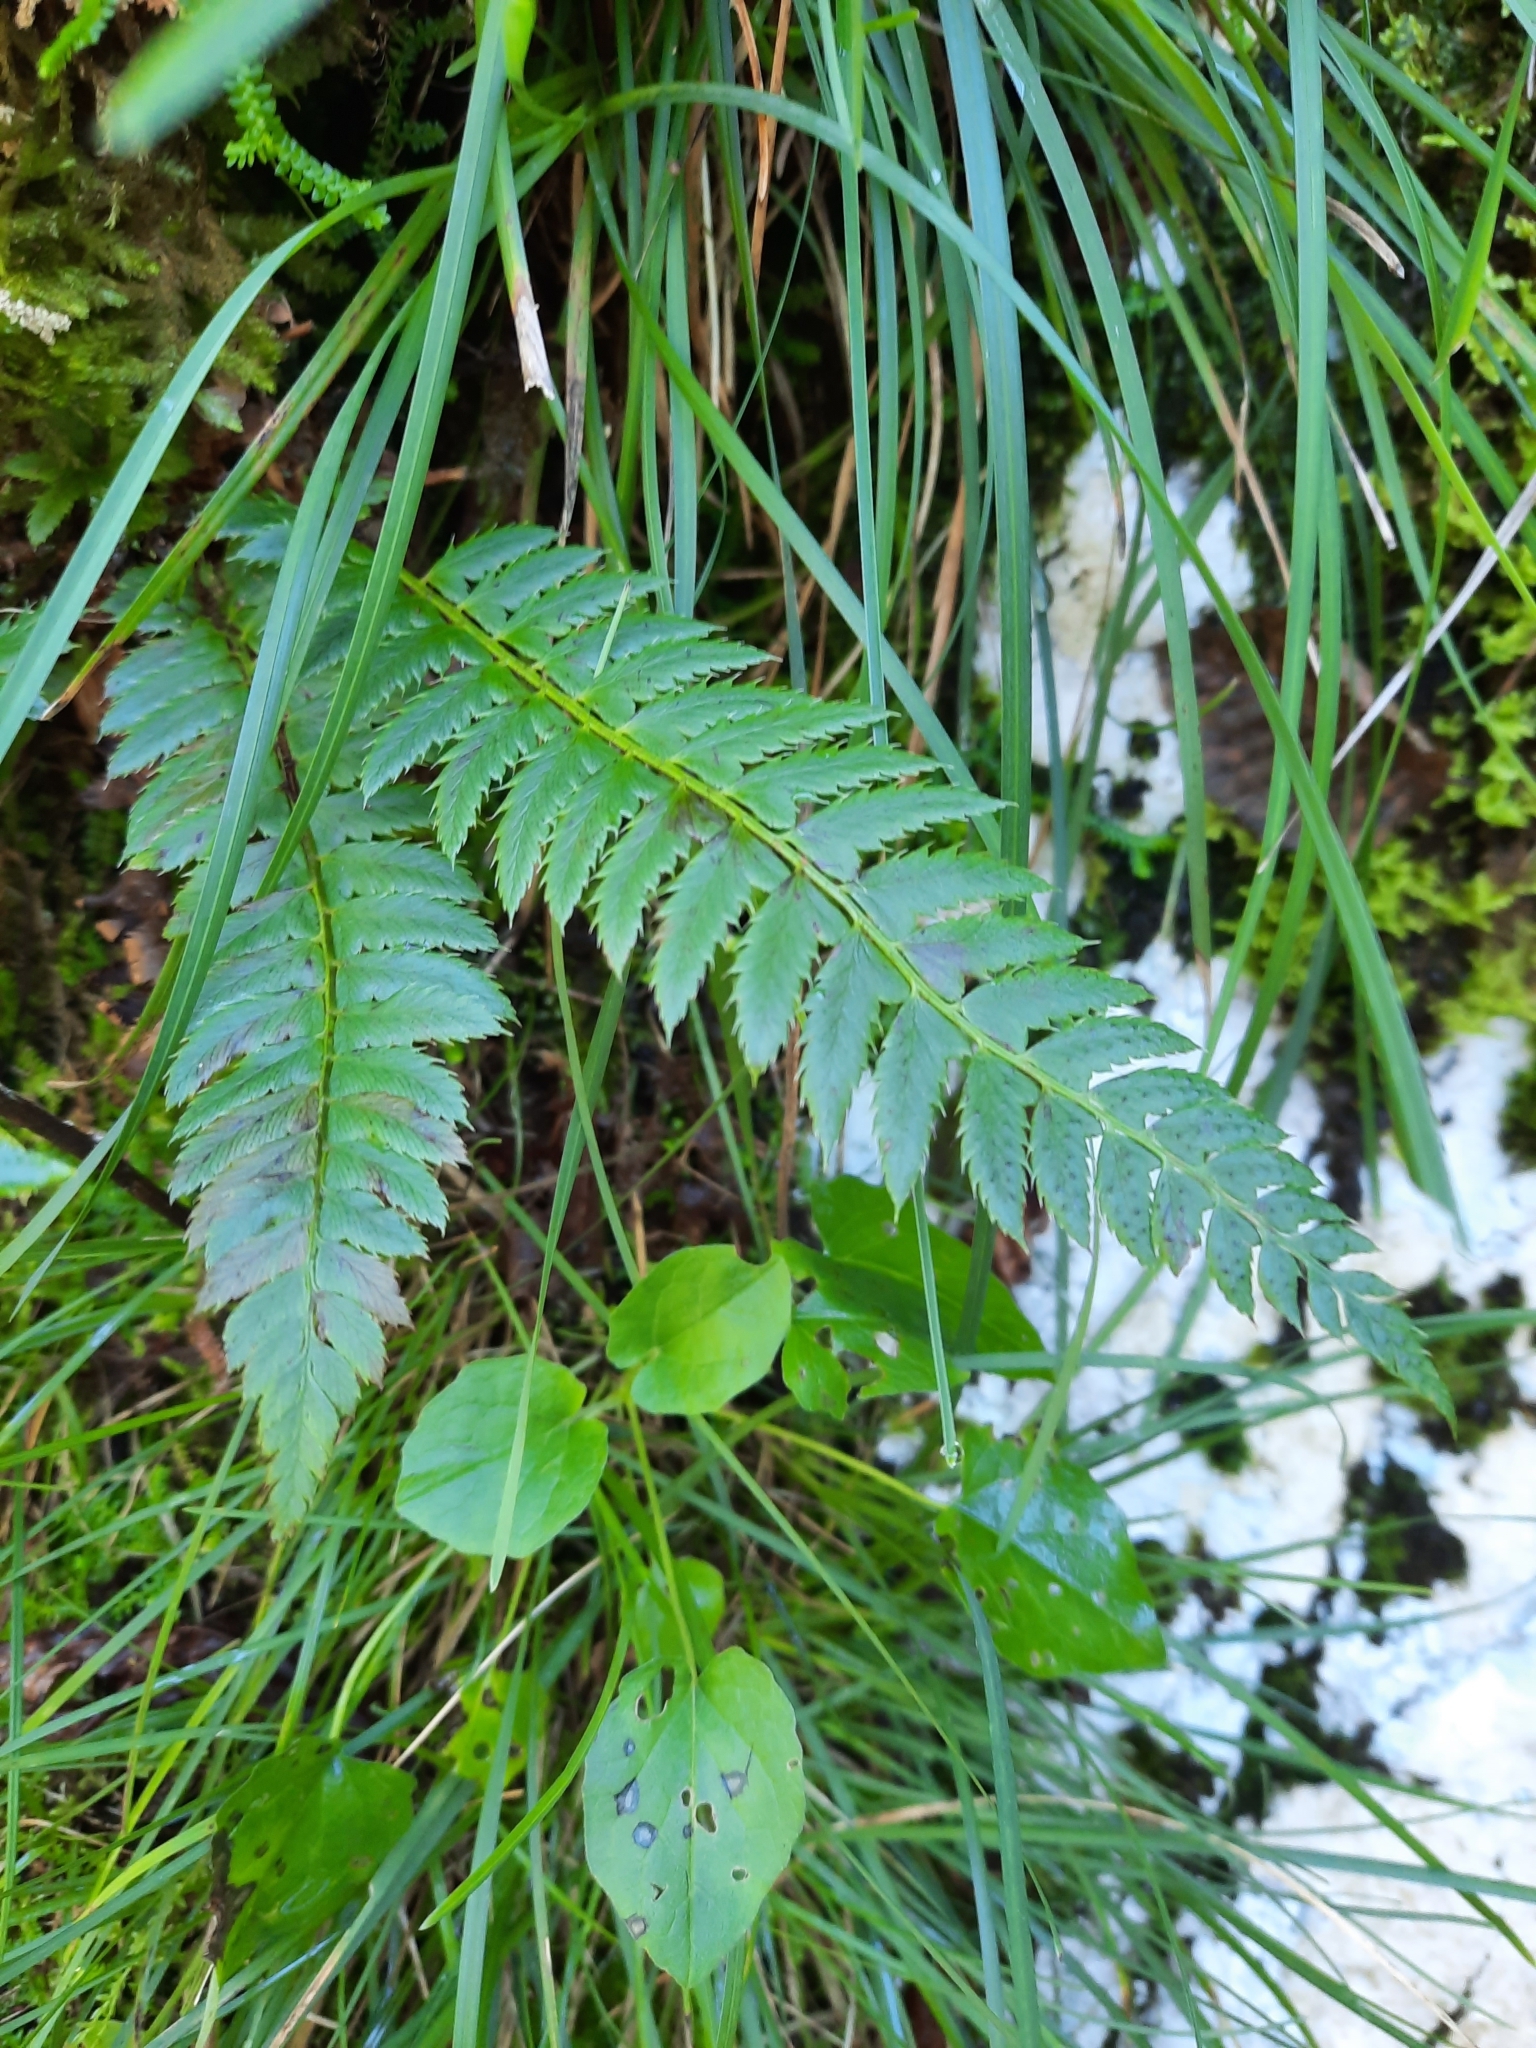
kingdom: Plantae
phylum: Tracheophyta
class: Polypodiopsida
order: Polypodiales
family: Dryopteridaceae
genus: Polystichum
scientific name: Polystichum aculeatum
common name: Hard shield-fern
